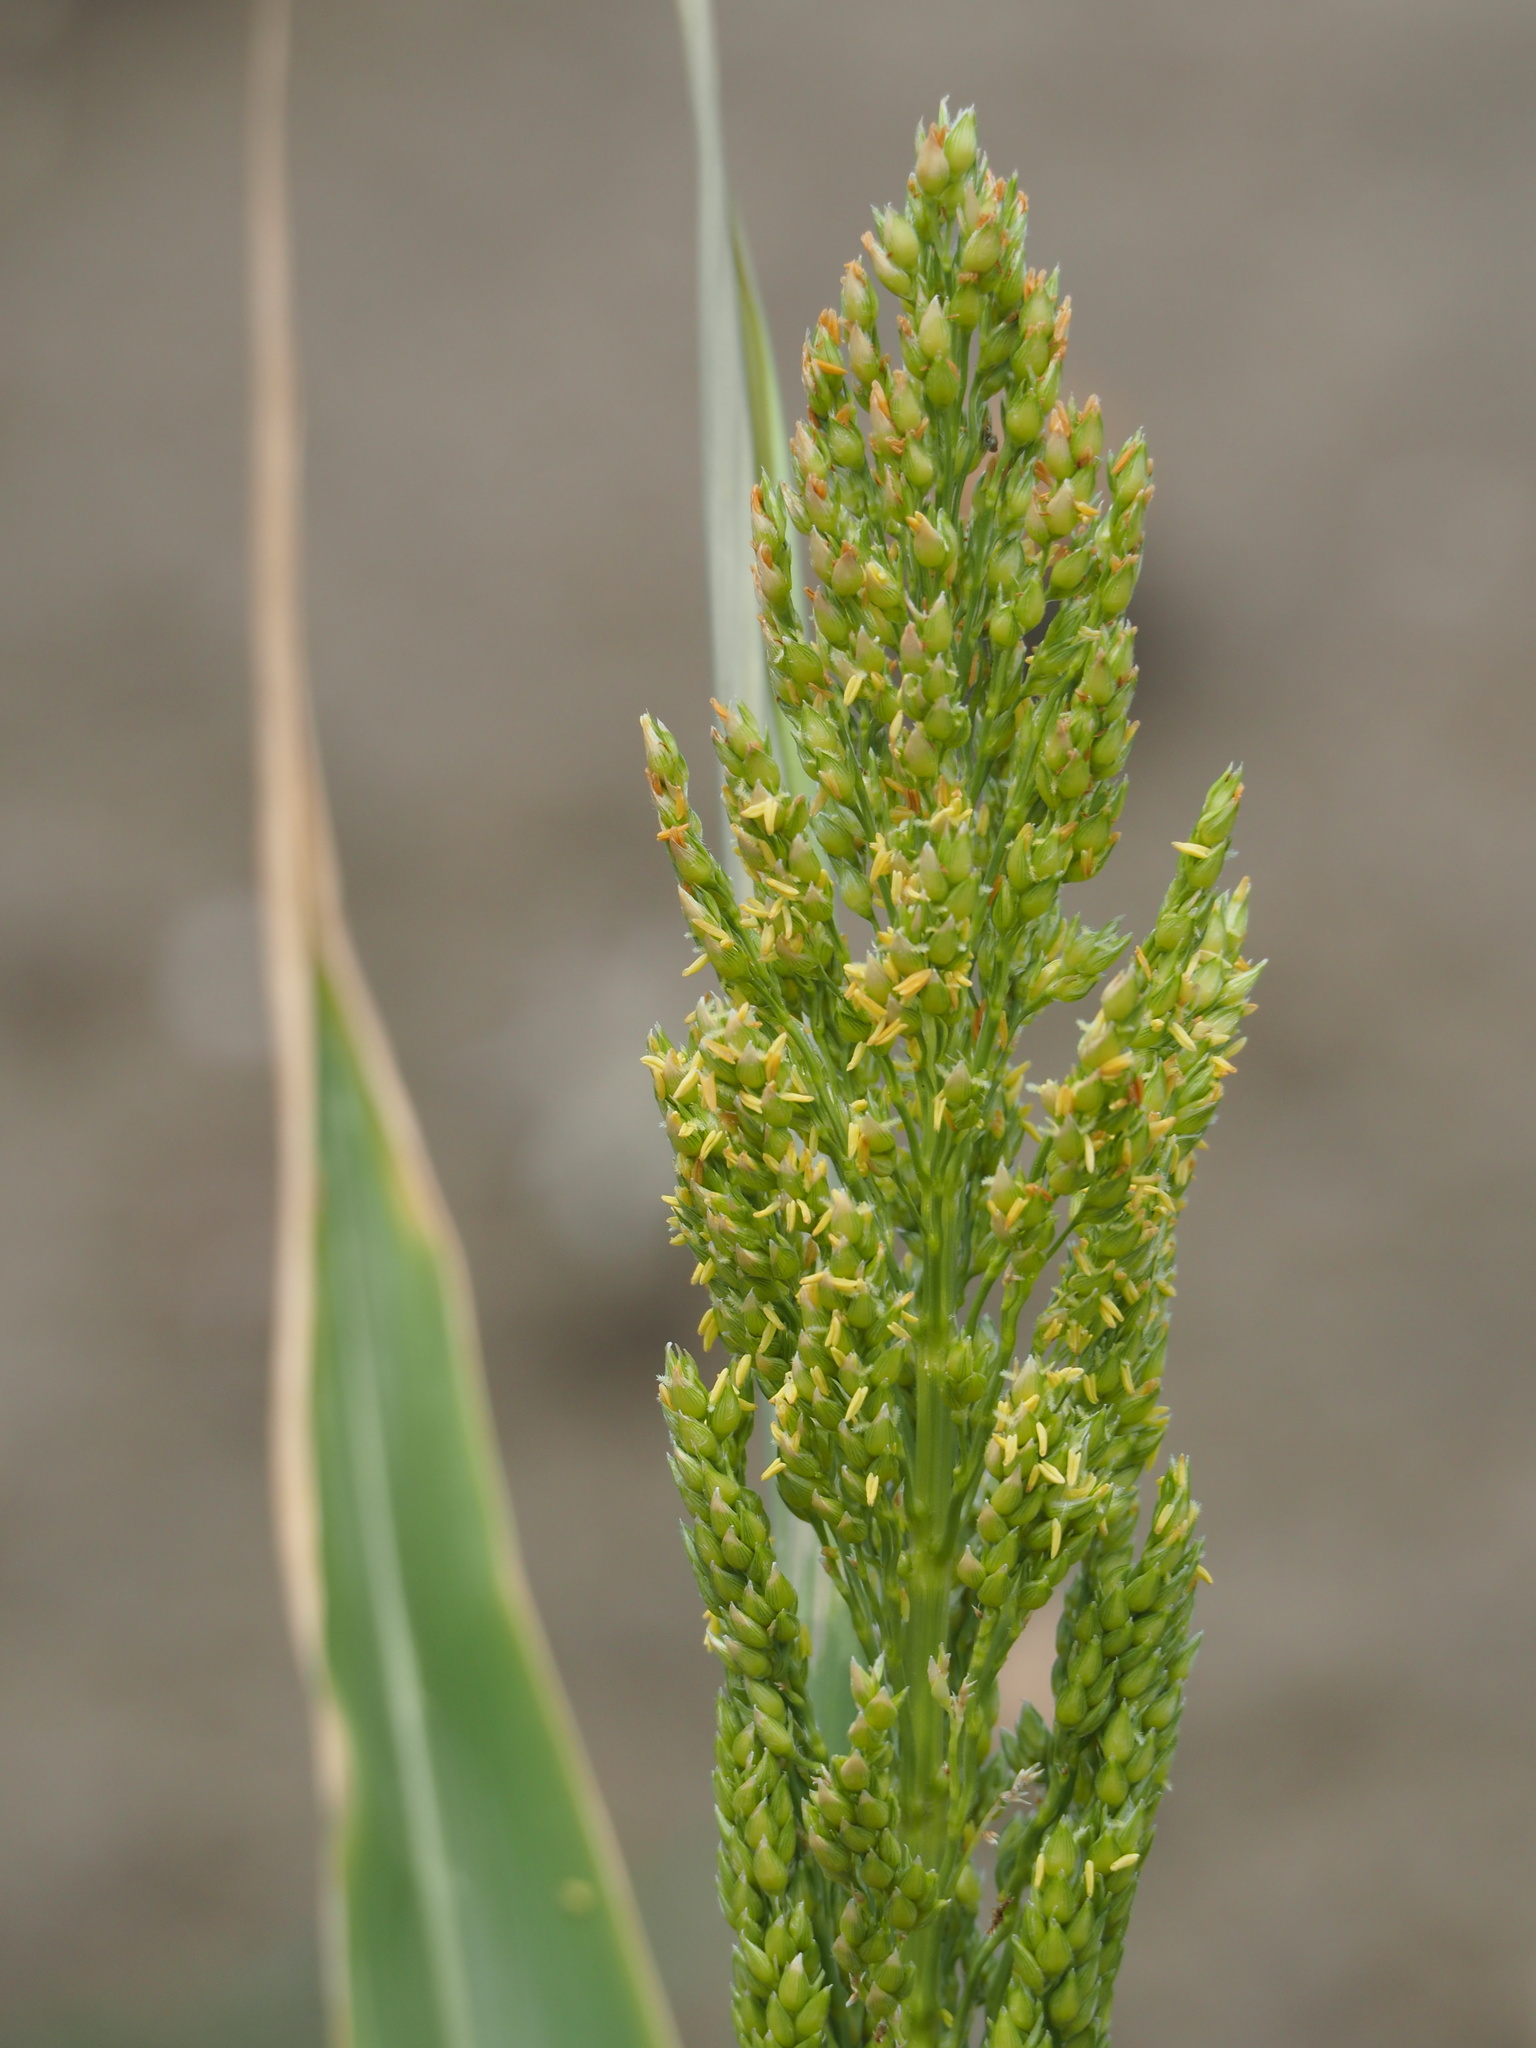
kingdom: Plantae
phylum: Tracheophyta
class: Liliopsida
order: Poales
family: Poaceae
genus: Sorghum
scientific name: Sorghum bicolor
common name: Sorghum
